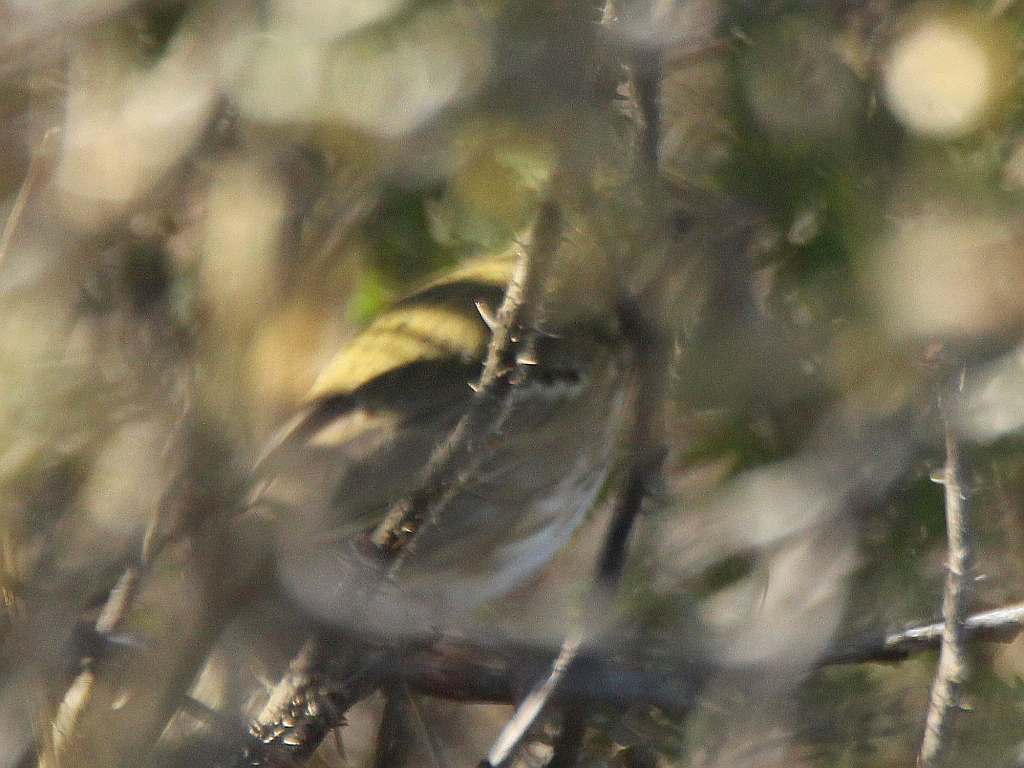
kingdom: Animalia
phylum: Chordata
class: Aves
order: Passeriformes
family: Motacillidae
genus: Anthus
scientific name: Anthus hodgsoni
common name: Olive-backed pipit
